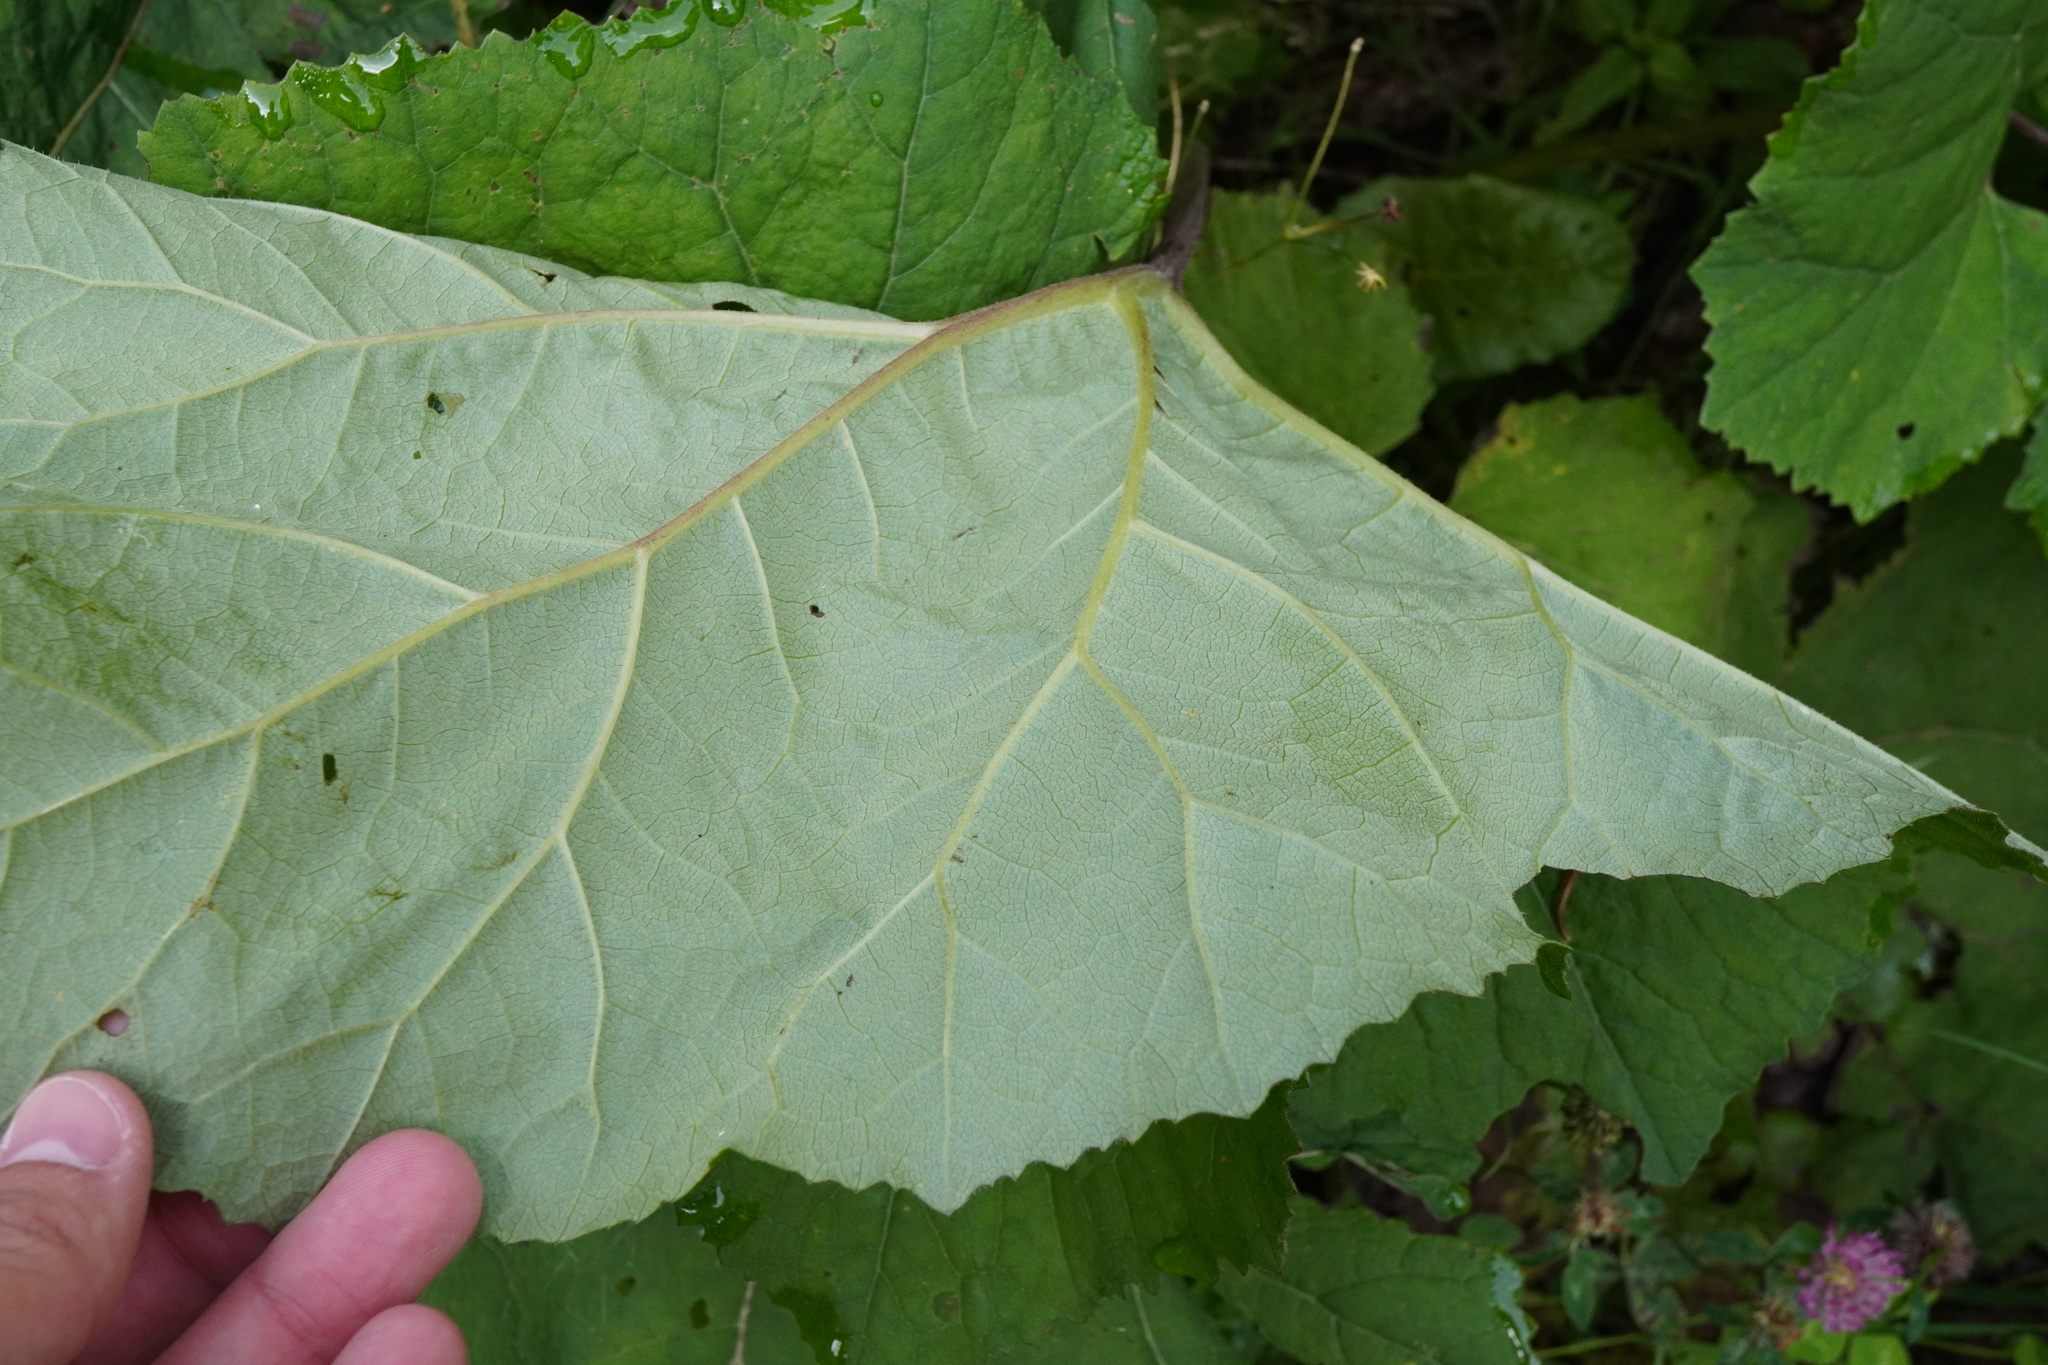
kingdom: Plantae
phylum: Tracheophyta
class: Magnoliopsida
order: Asterales
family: Asteraceae
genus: Petasites
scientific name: Petasites hybridus
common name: Butterbur
